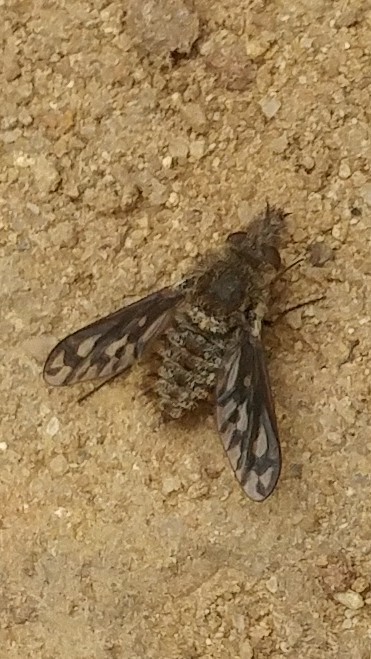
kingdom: Animalia
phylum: Arthropoda
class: Insecta
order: Diptera
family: Bombyliidae
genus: Xenox
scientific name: Xenox
